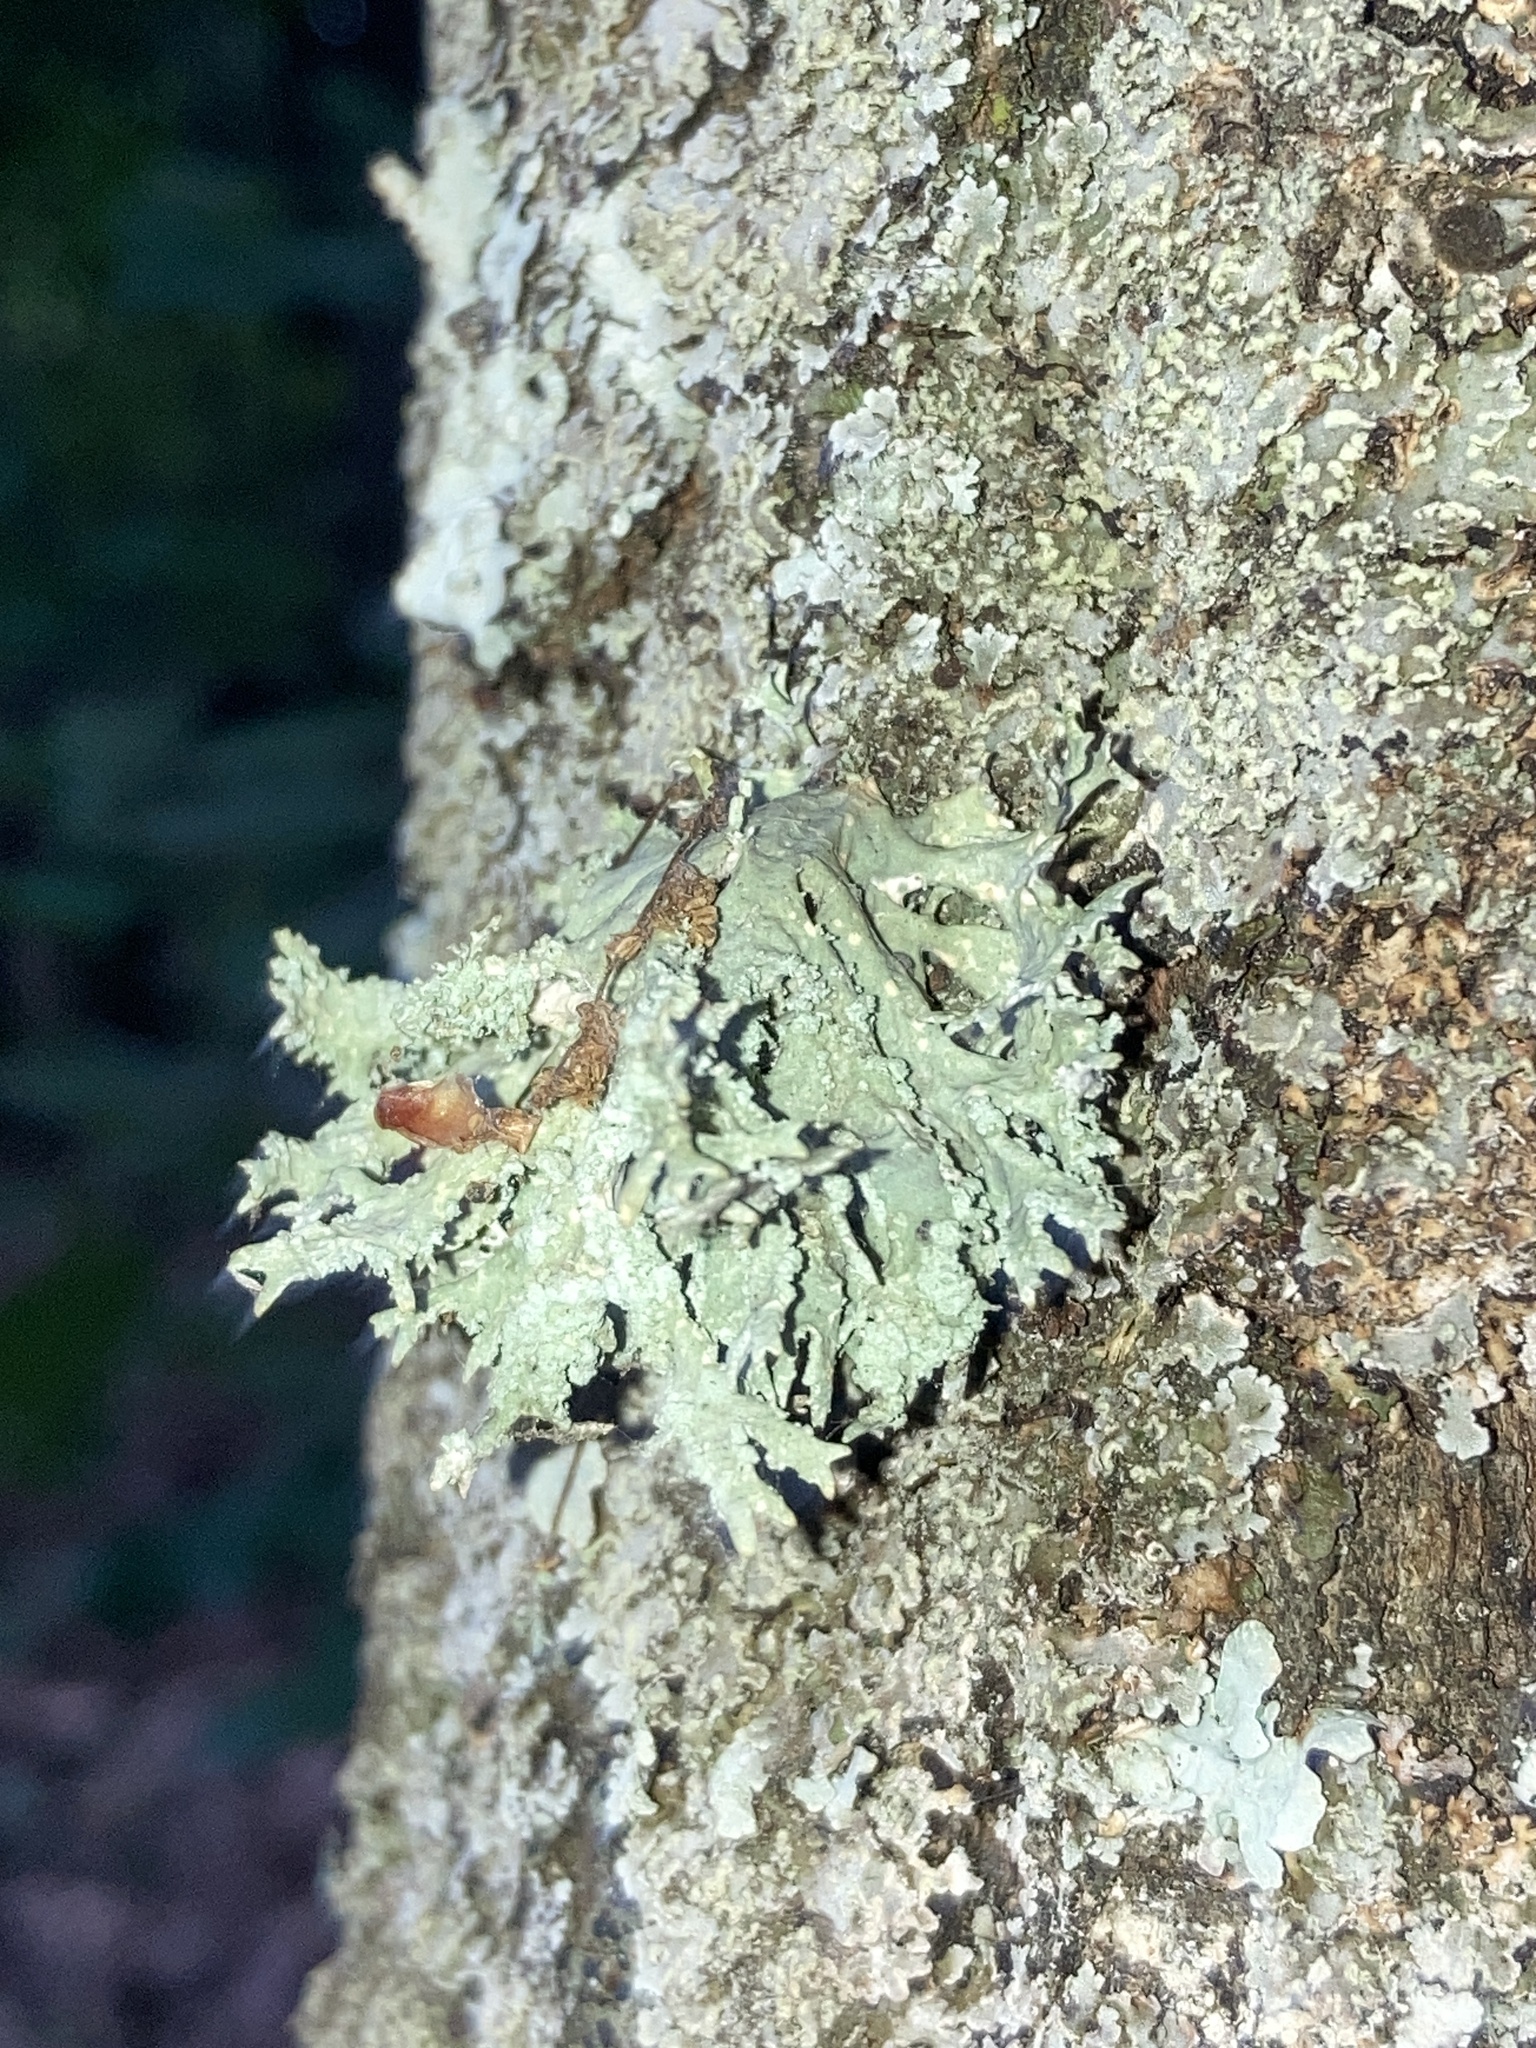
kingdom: Fungi
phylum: Ascomycota
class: Lecanoromycetes
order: Lecanorales
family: Parmeliaceae
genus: Evernia
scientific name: Evernia prunastri
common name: Oak moss
